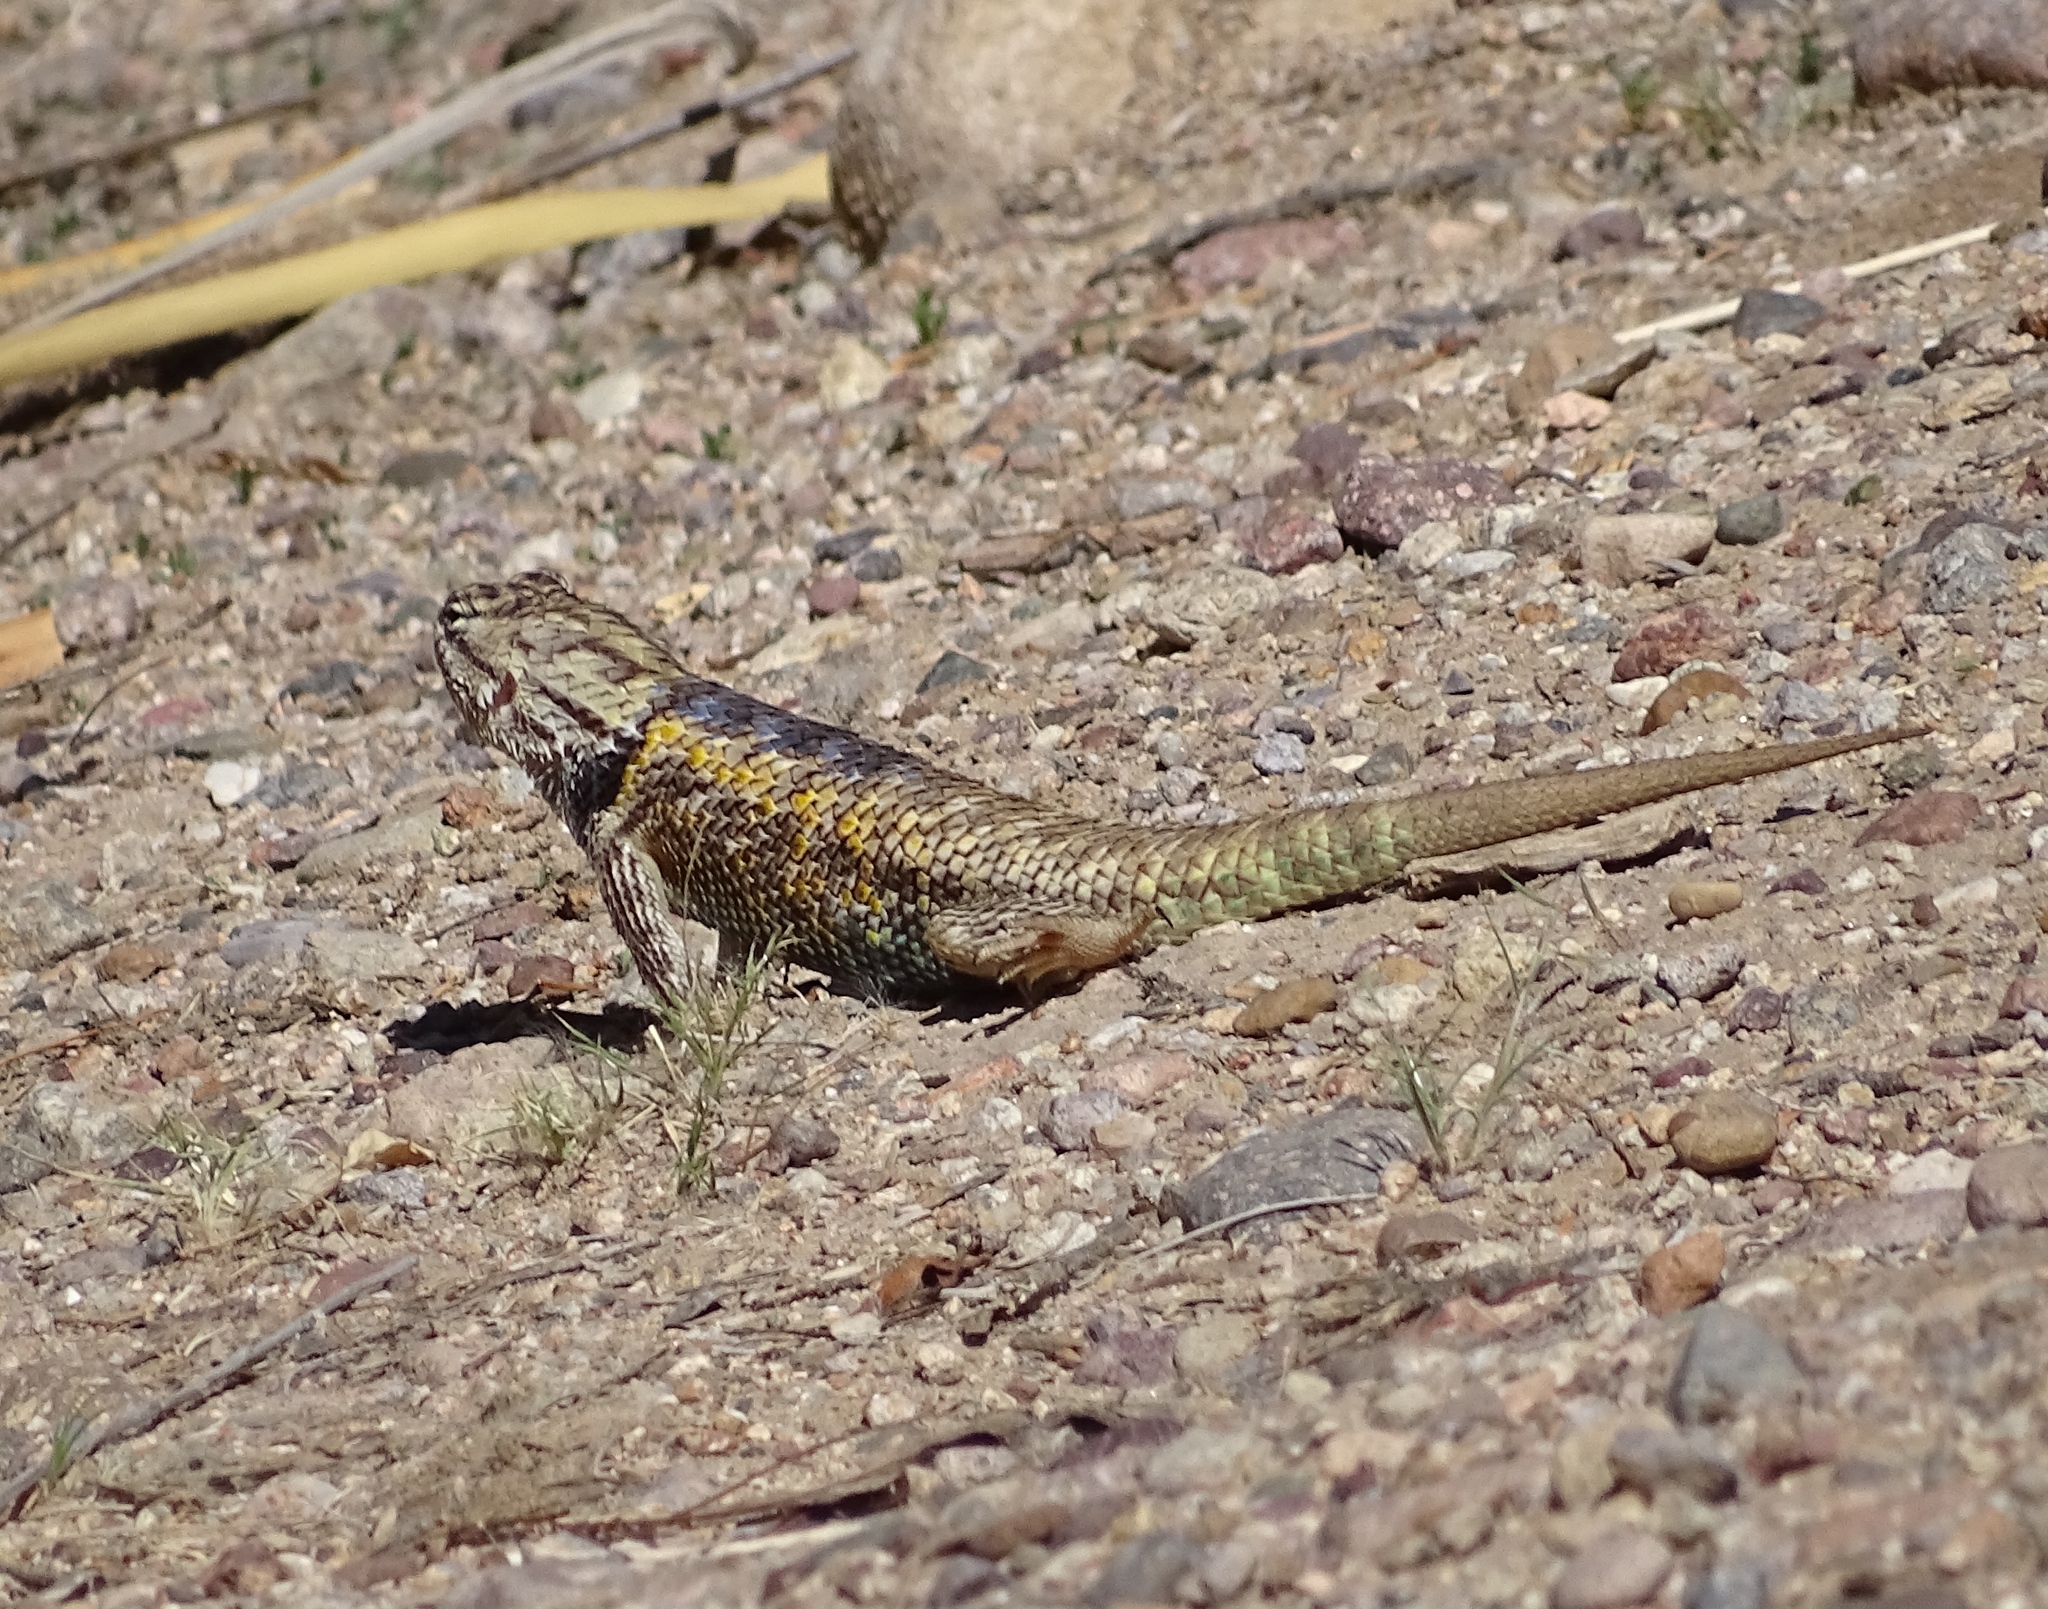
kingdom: Animalia
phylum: Chordata
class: Squamata
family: Phrynosomatidae
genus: Sceloporus
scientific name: Sceloporus magister
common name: Desert spiny lizard
